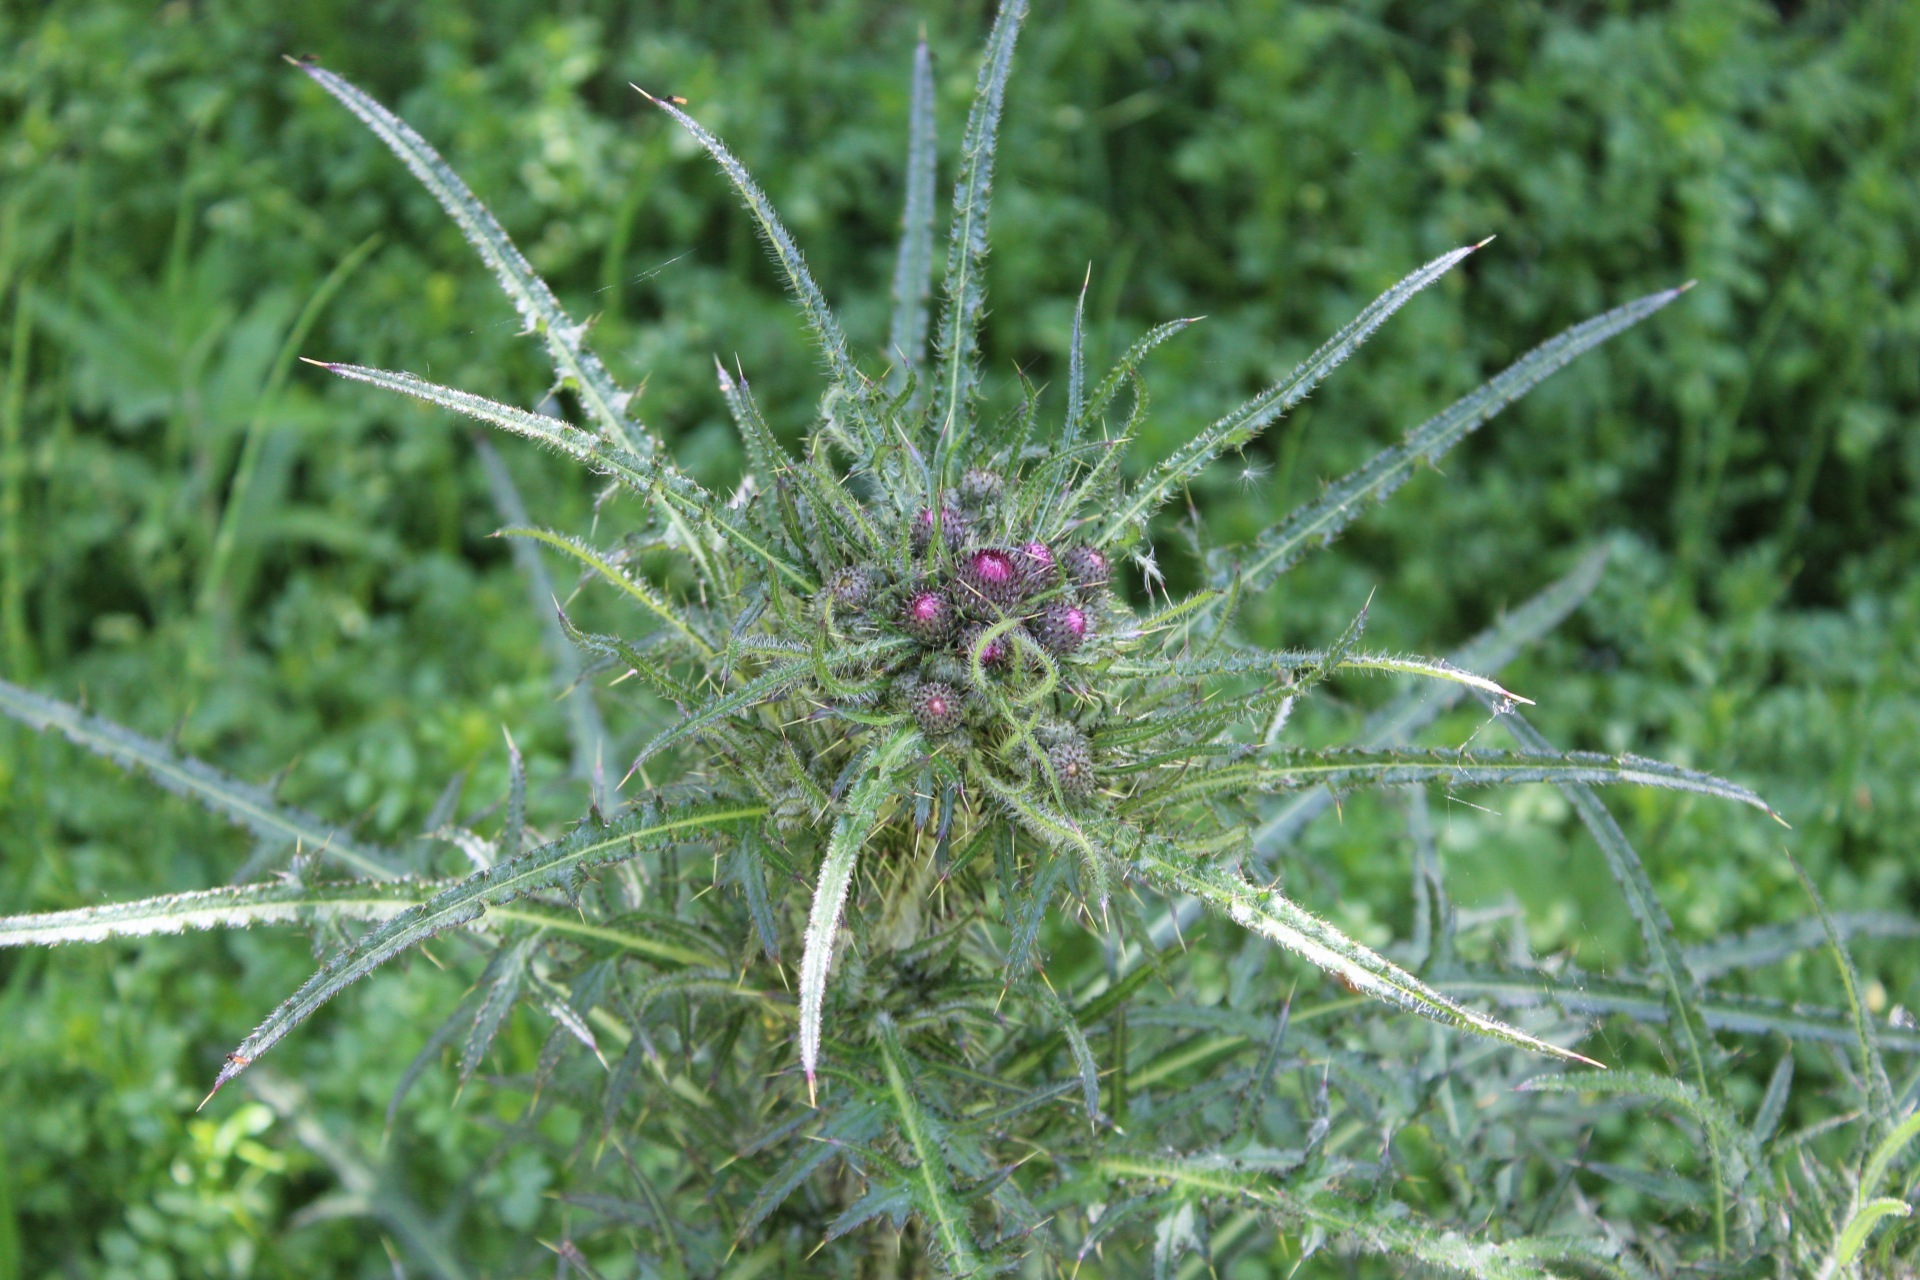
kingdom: Plantae
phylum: Tracheophyta
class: Magnoliopsida
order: Asterales
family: Asteraceae
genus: Cirsium
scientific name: Cirsium palustre
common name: Marsh thistle
